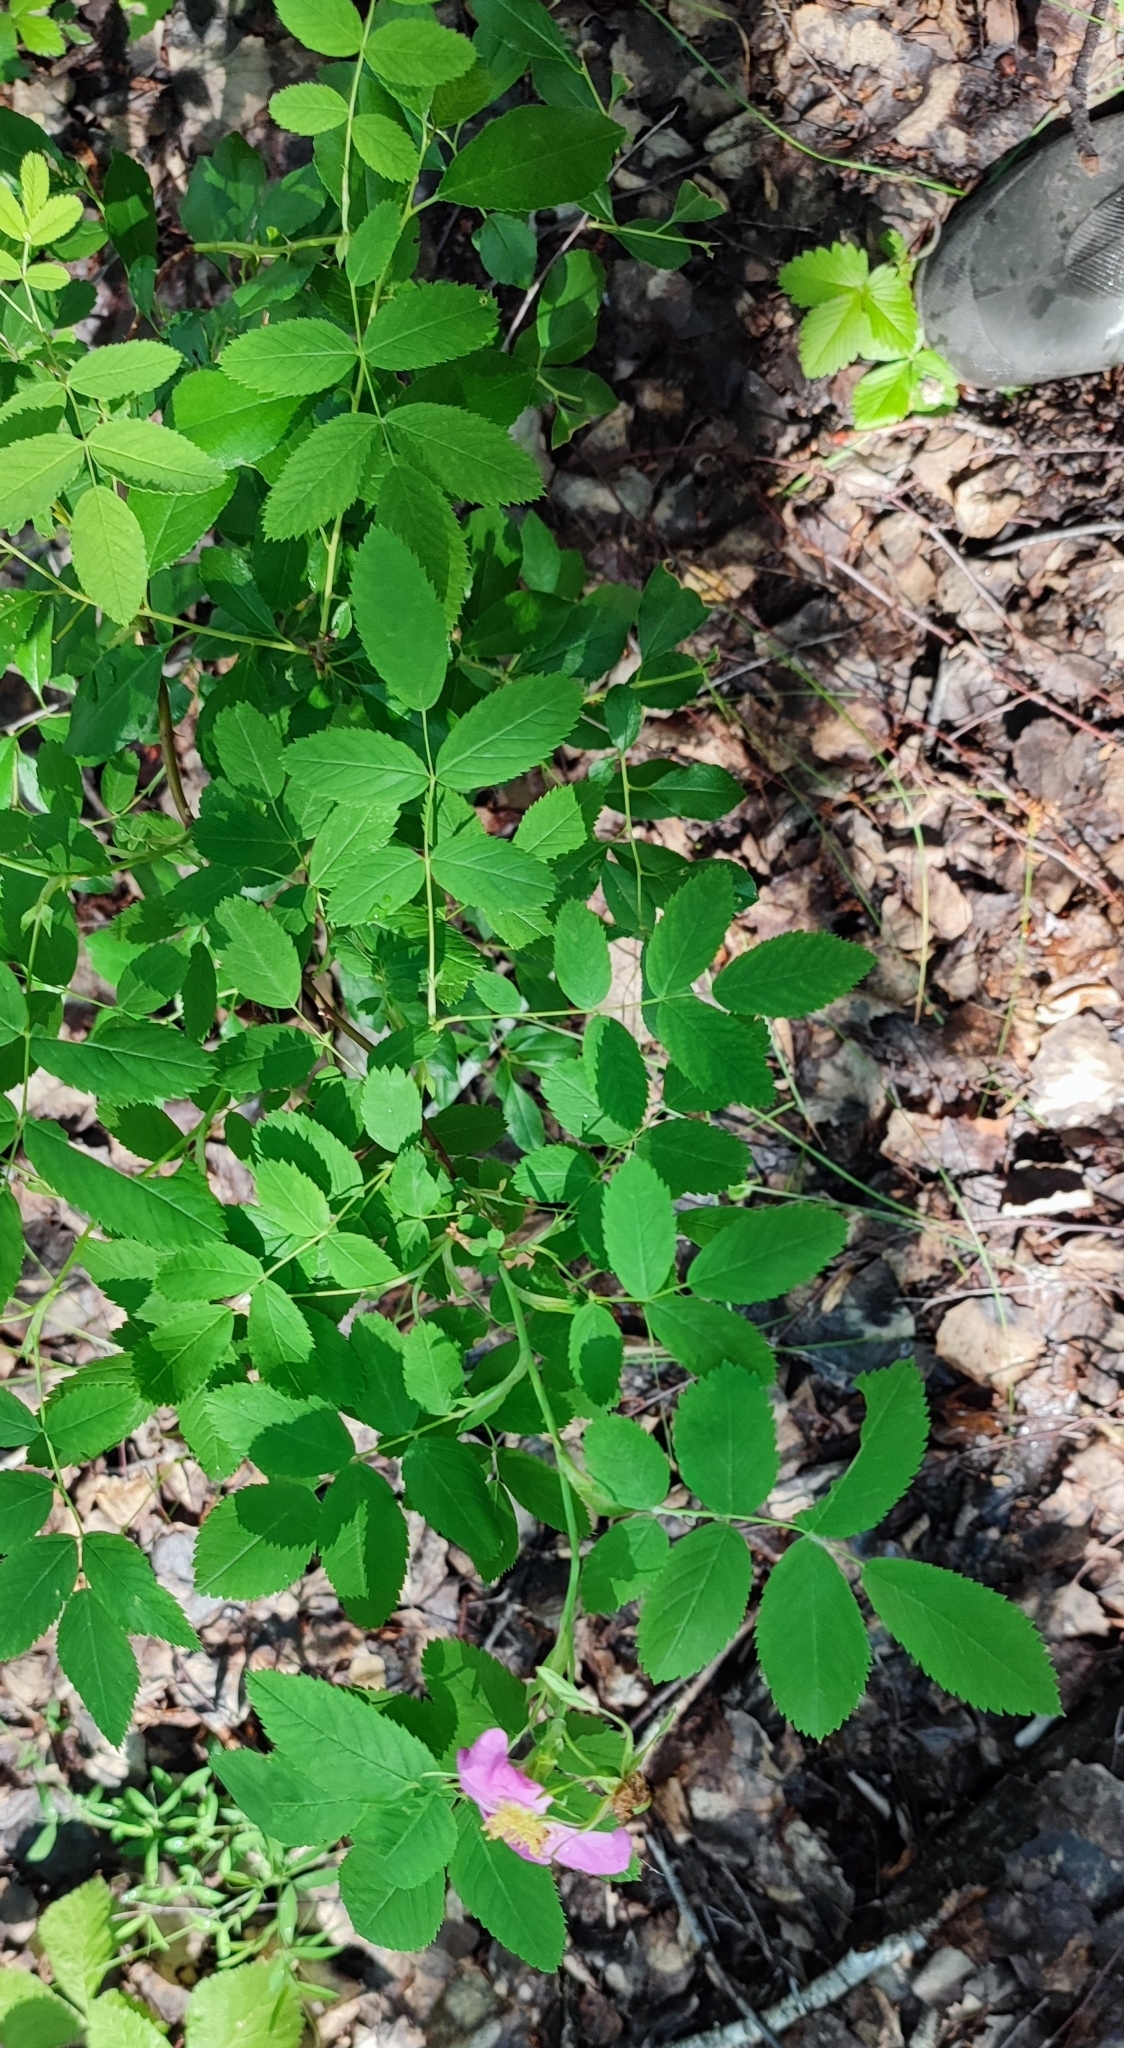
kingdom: Plantae
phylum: Tracheophyta
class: Magnoliopsida
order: Rosales
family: Rosaceae
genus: Rosa
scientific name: Rosa glabrifolia
